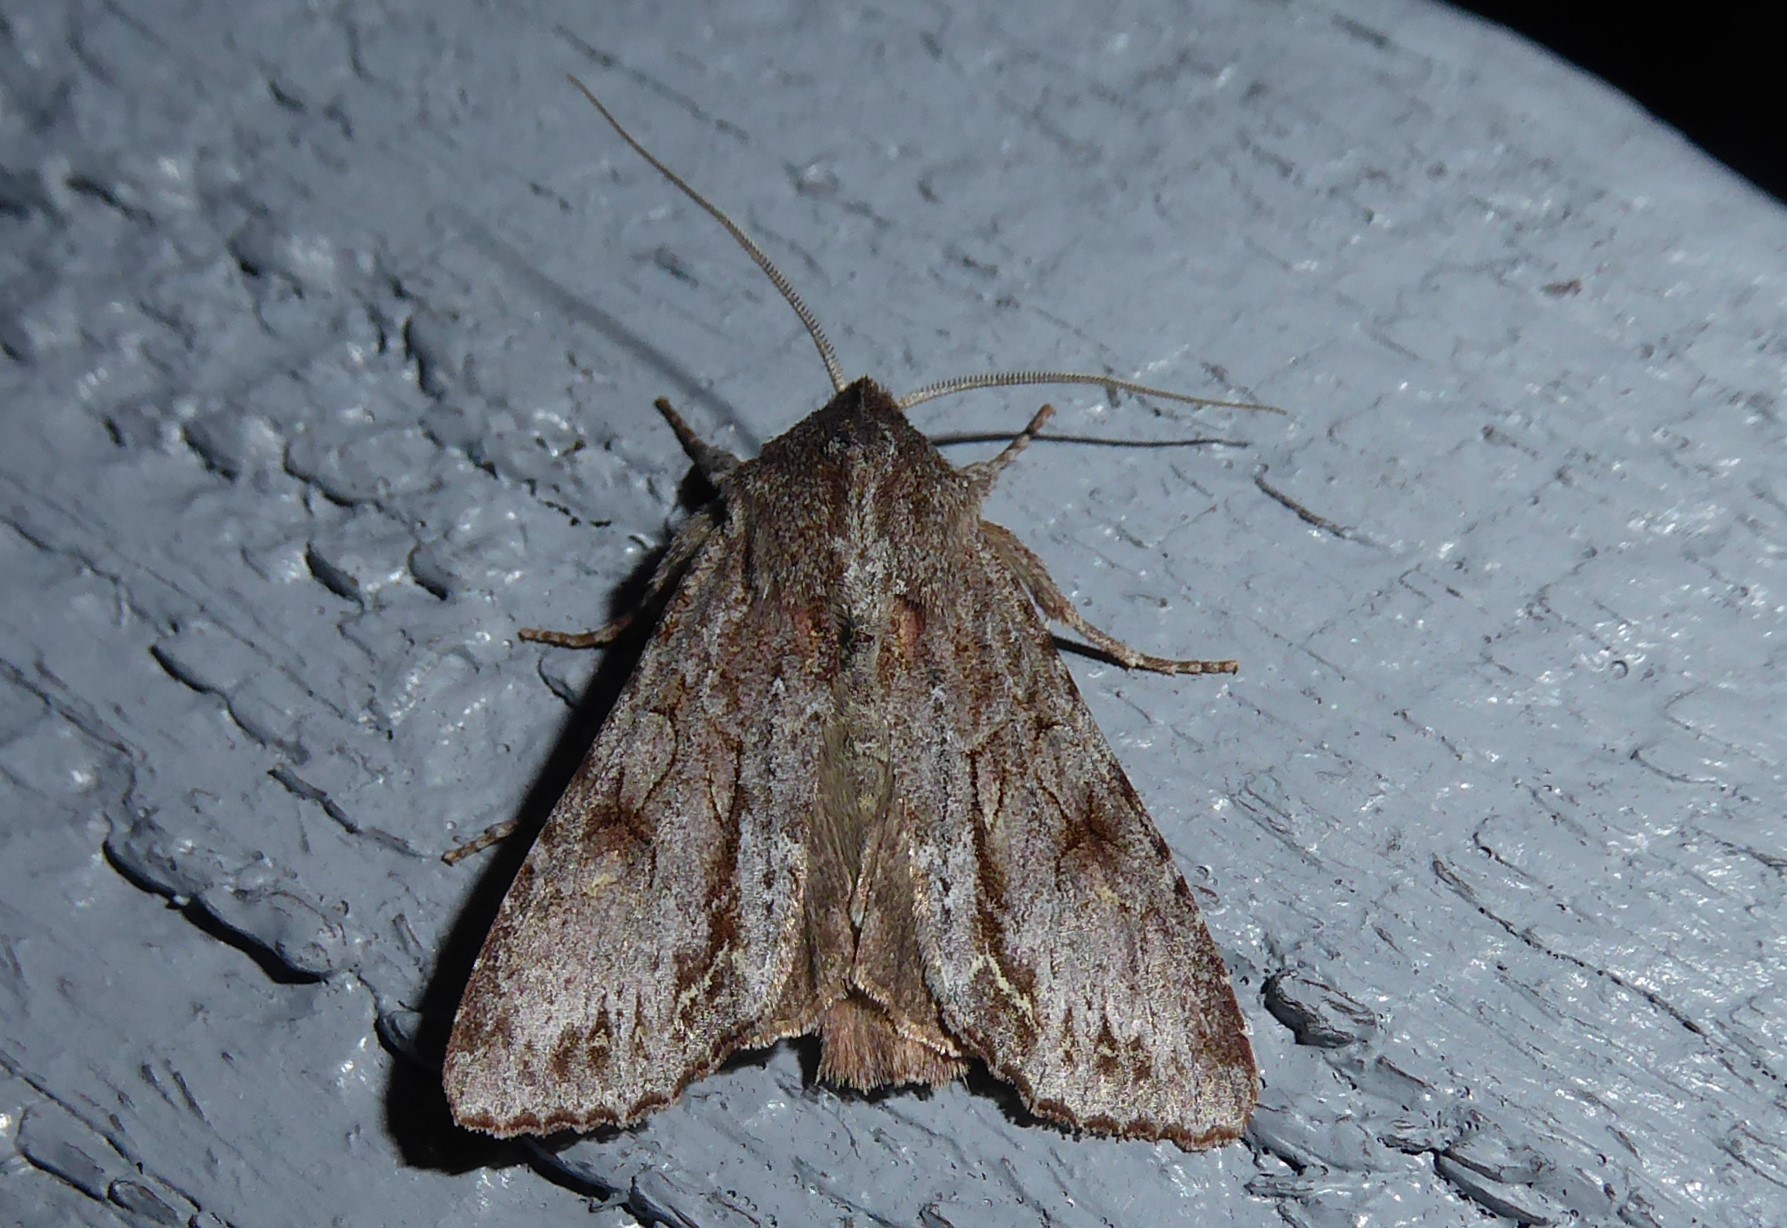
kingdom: Animalia
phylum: Arthropoda
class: Insecta
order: Lepidoptera
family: Noctuidae
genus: Ichneutica
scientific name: Ichneutica
